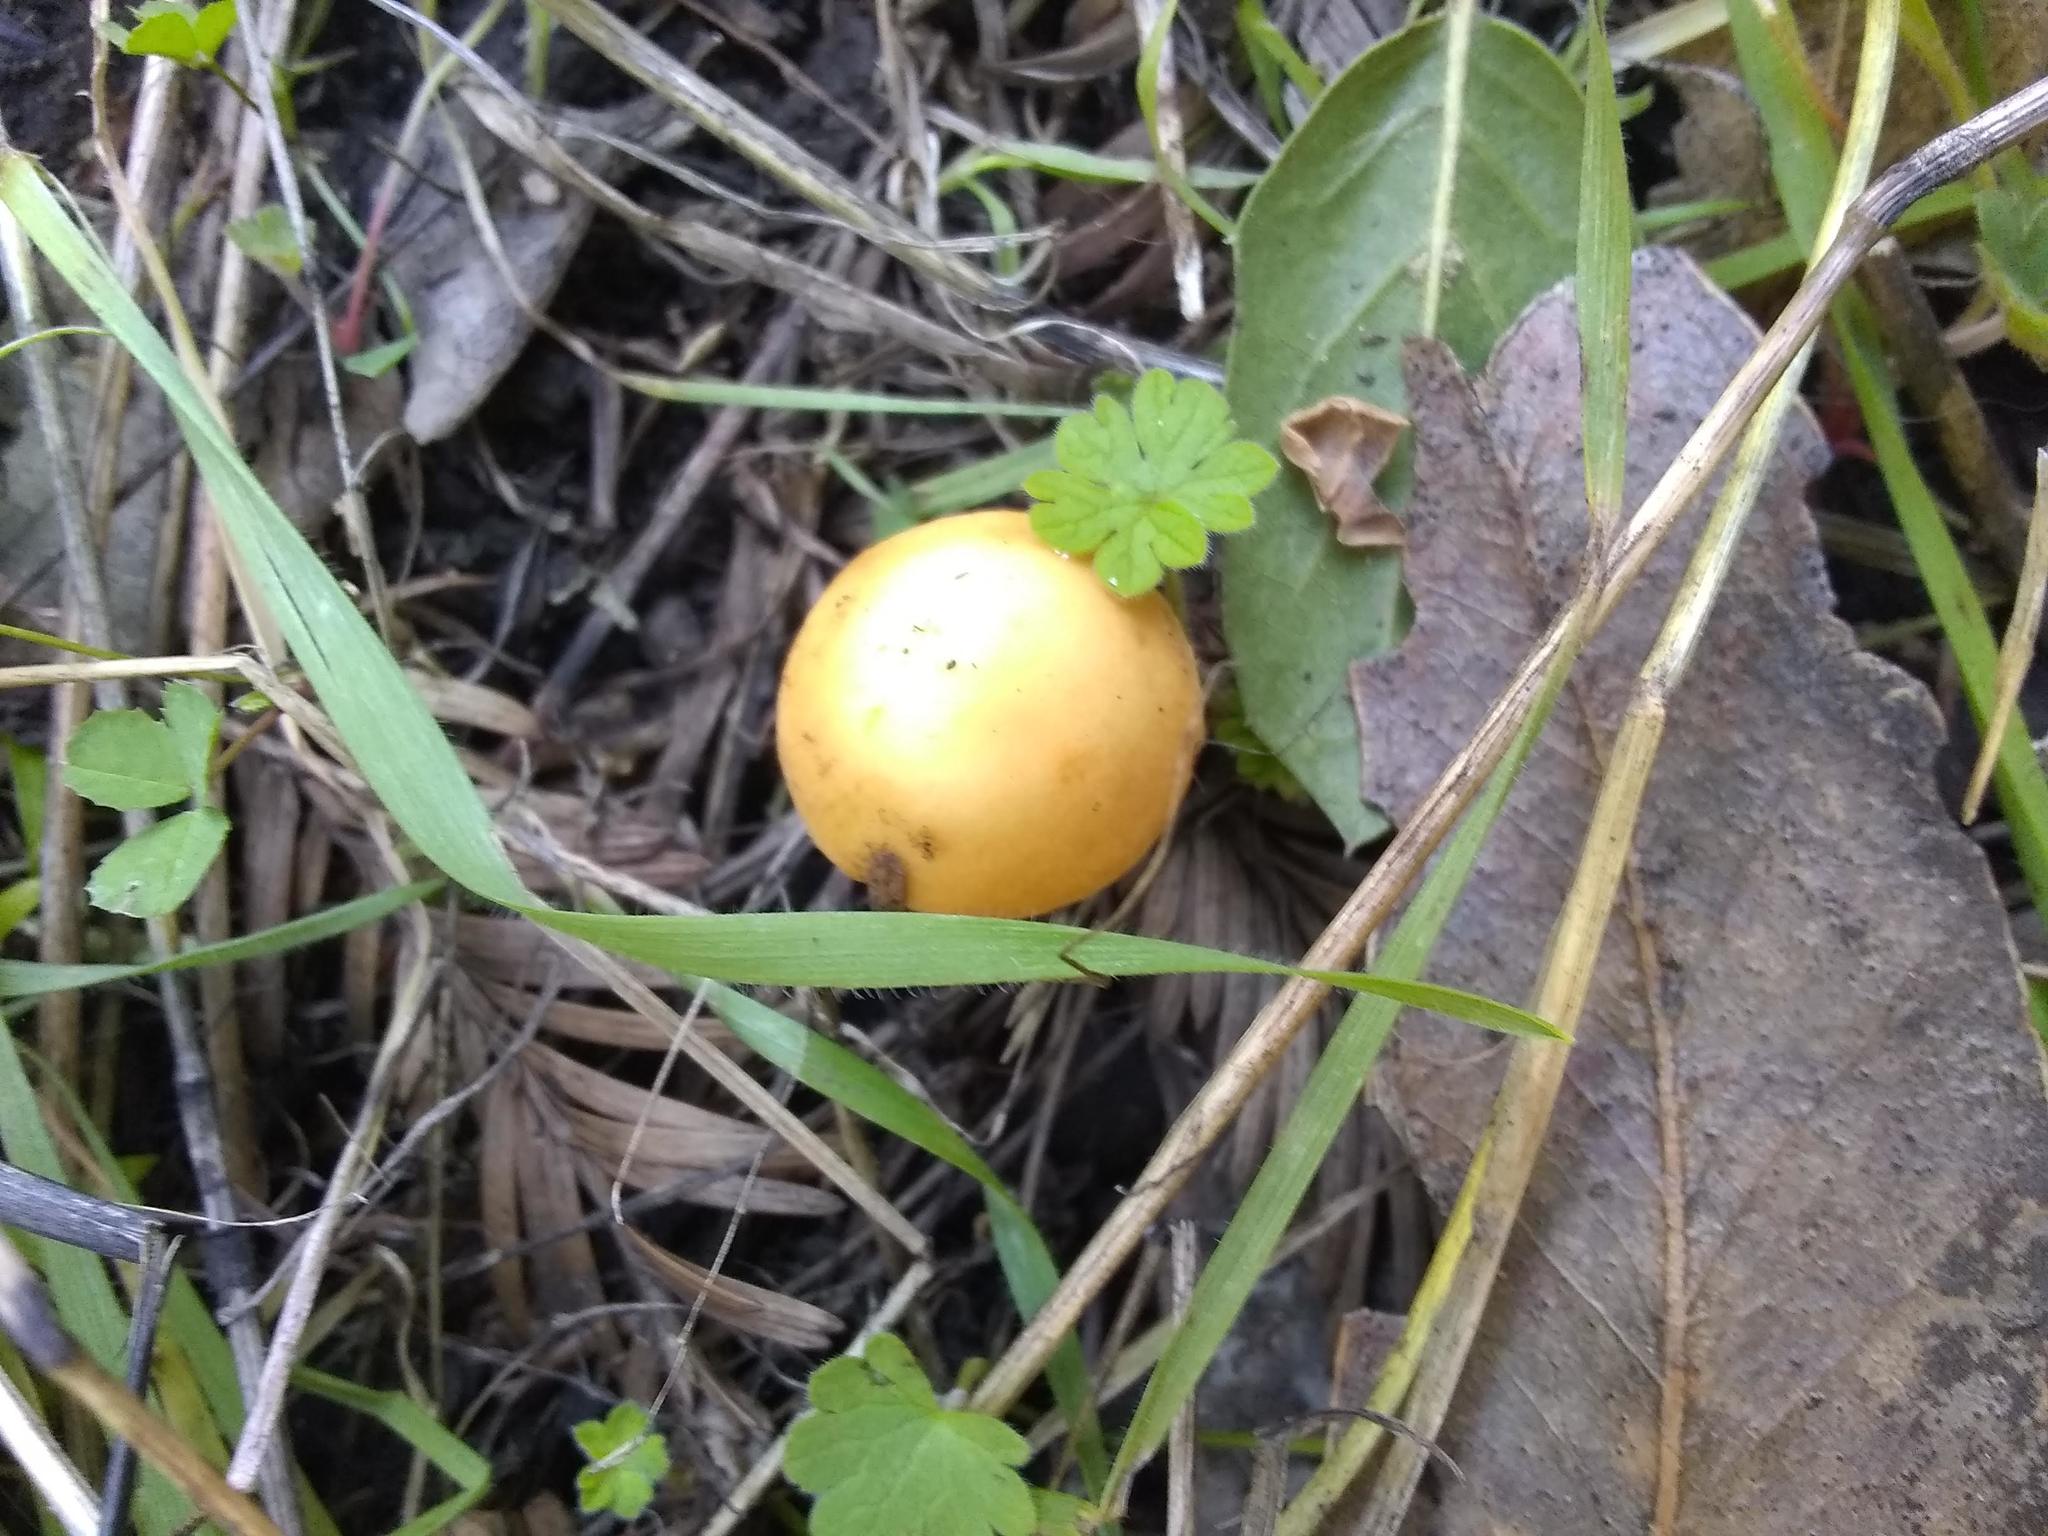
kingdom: Fungi
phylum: Basidiomycota
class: Agaricomycetes
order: Agaricales
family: Strophariaceae
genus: Leratiomyces
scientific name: Leratiomyces percevalii
